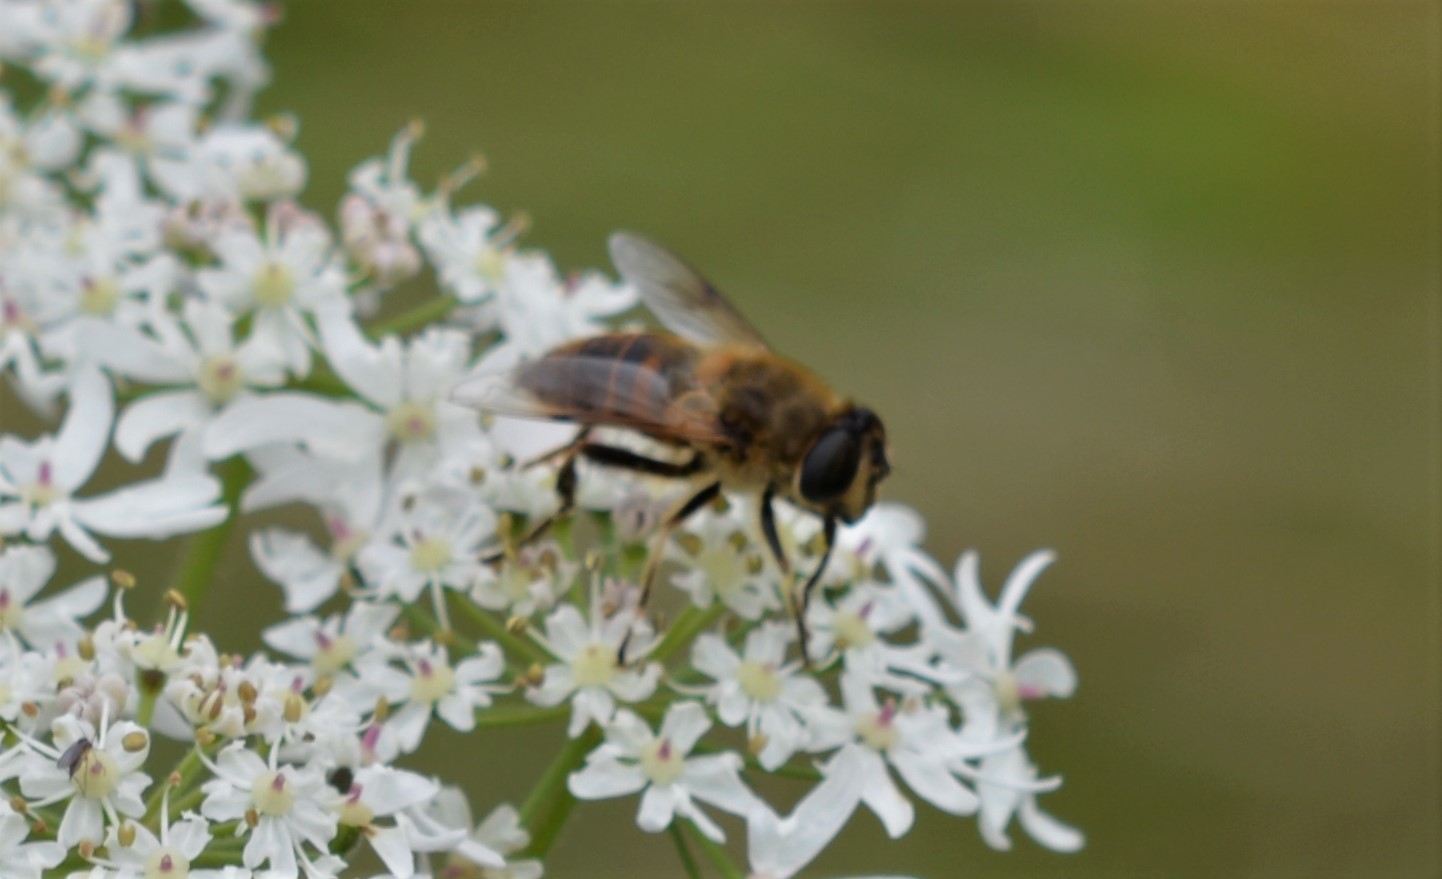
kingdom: Animalia
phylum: Arthropoda
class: Insecta
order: Diptera
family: Syrphidae
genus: Eristalis
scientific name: Eristalis tenax
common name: Drone fly
